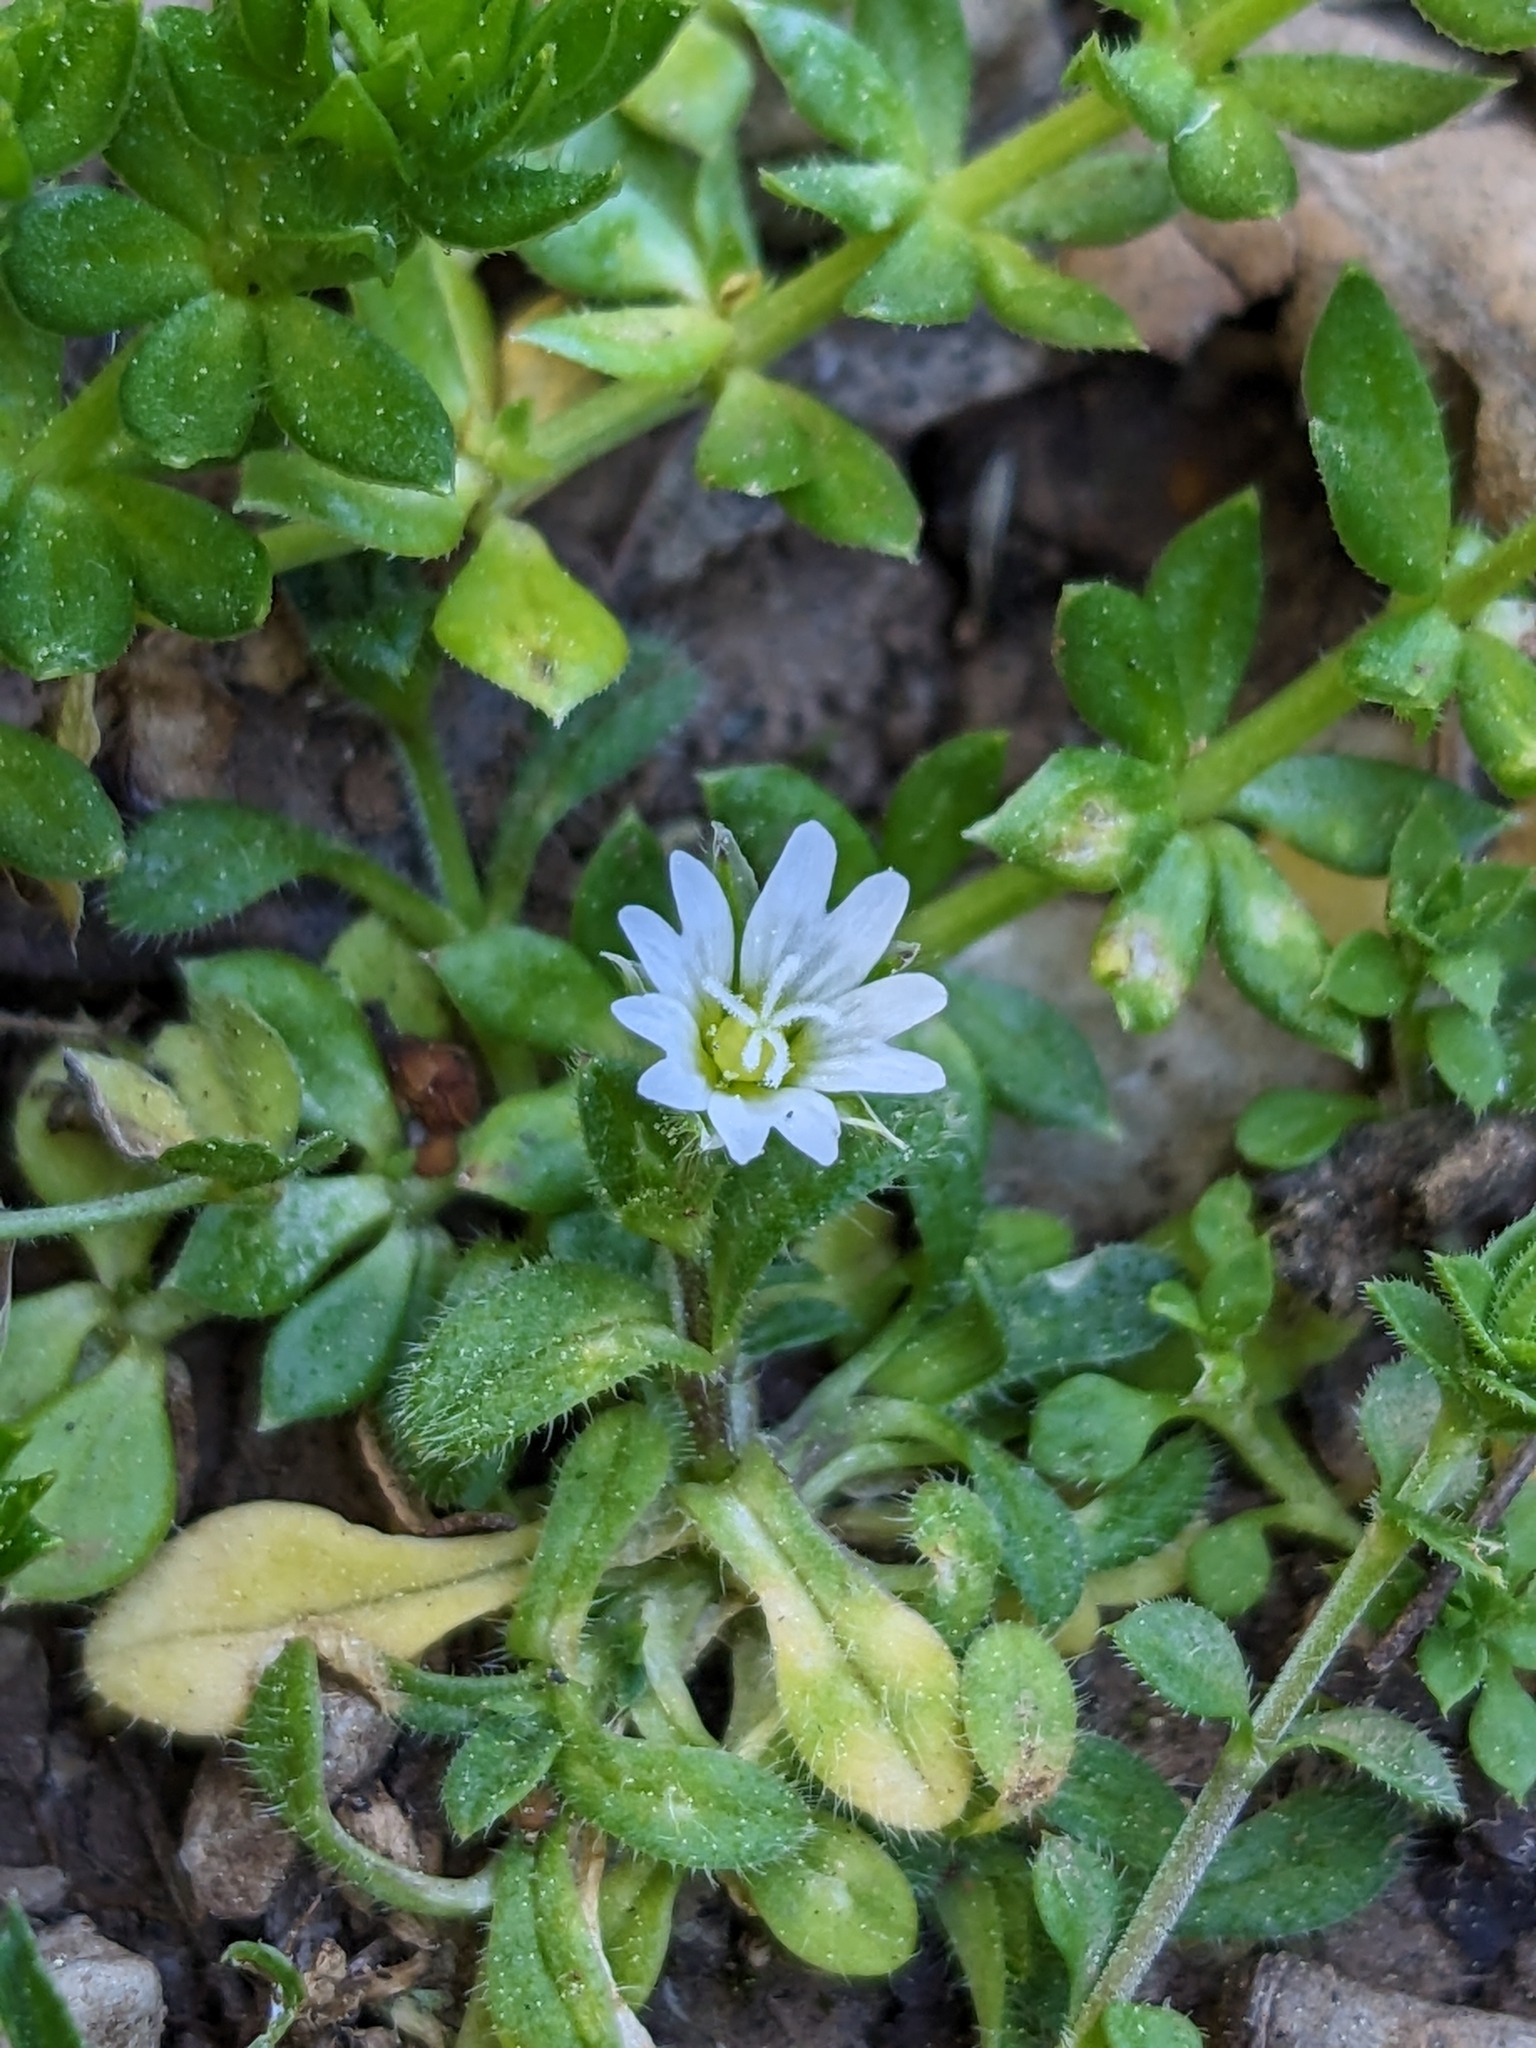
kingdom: Plantae
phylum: Tracheophyta
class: Magnoliopsida
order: Caryophyllales
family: Caryophyllaceae
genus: Cerastium
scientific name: Cerastium pumilum
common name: Dwarf mouse-ear
